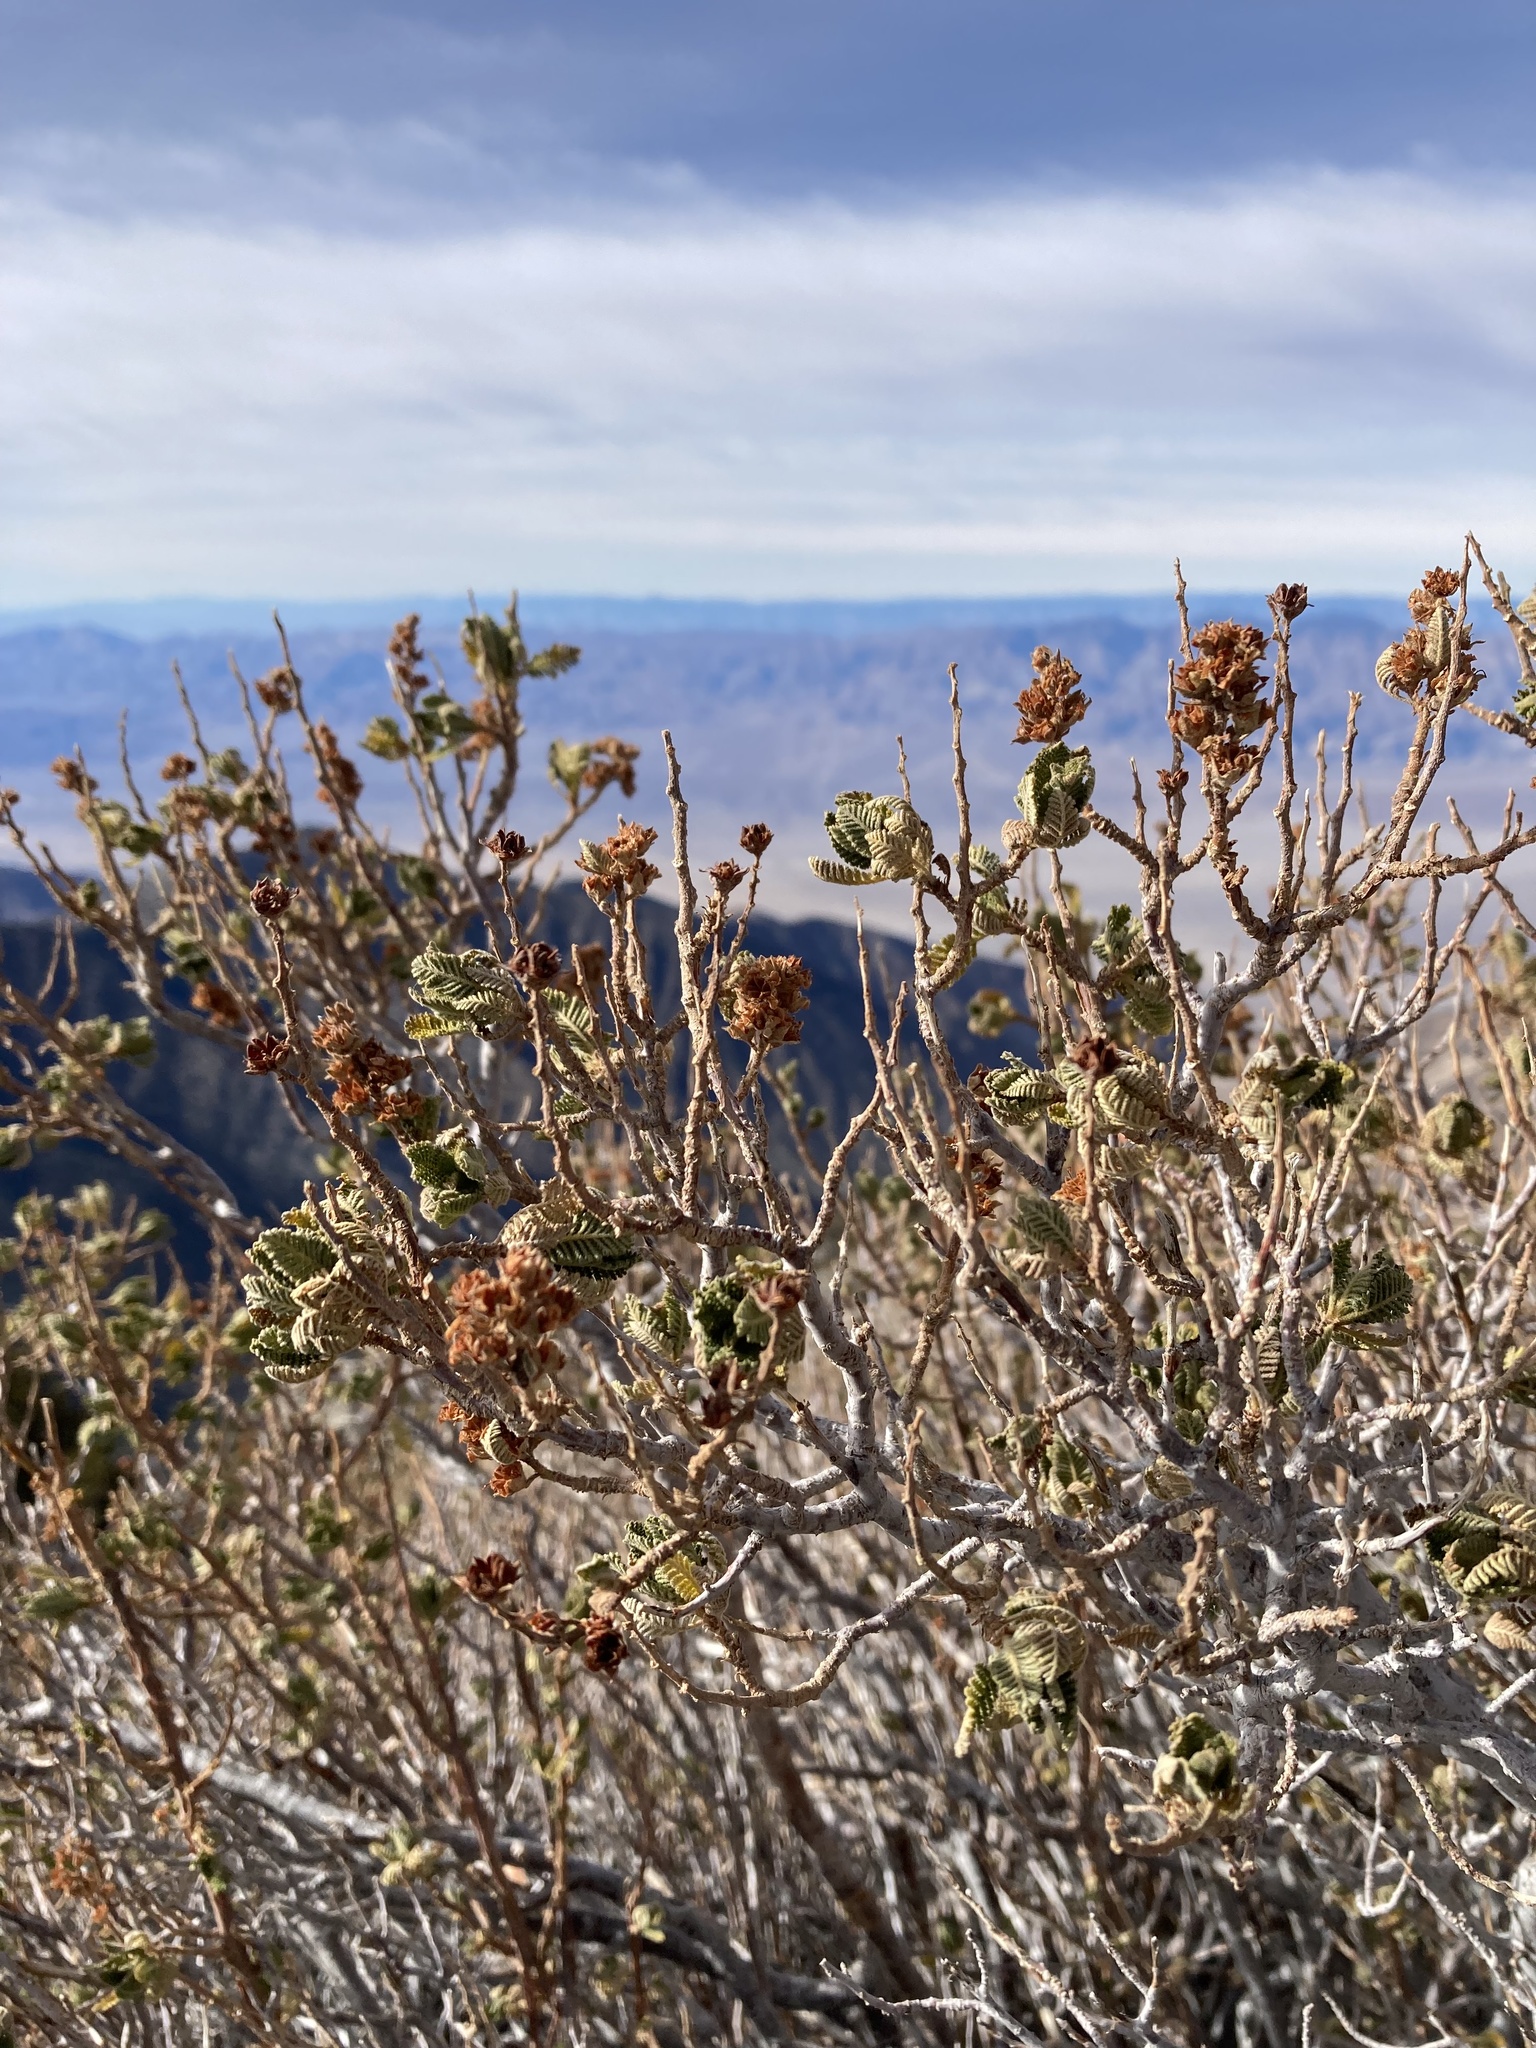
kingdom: Plantae
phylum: Tracheophyta
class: Magnoliopsida
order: Rosales
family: Rosaceae
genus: Chamaebatiaria
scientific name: Chamaebatiaria millefolium
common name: Fernbush
